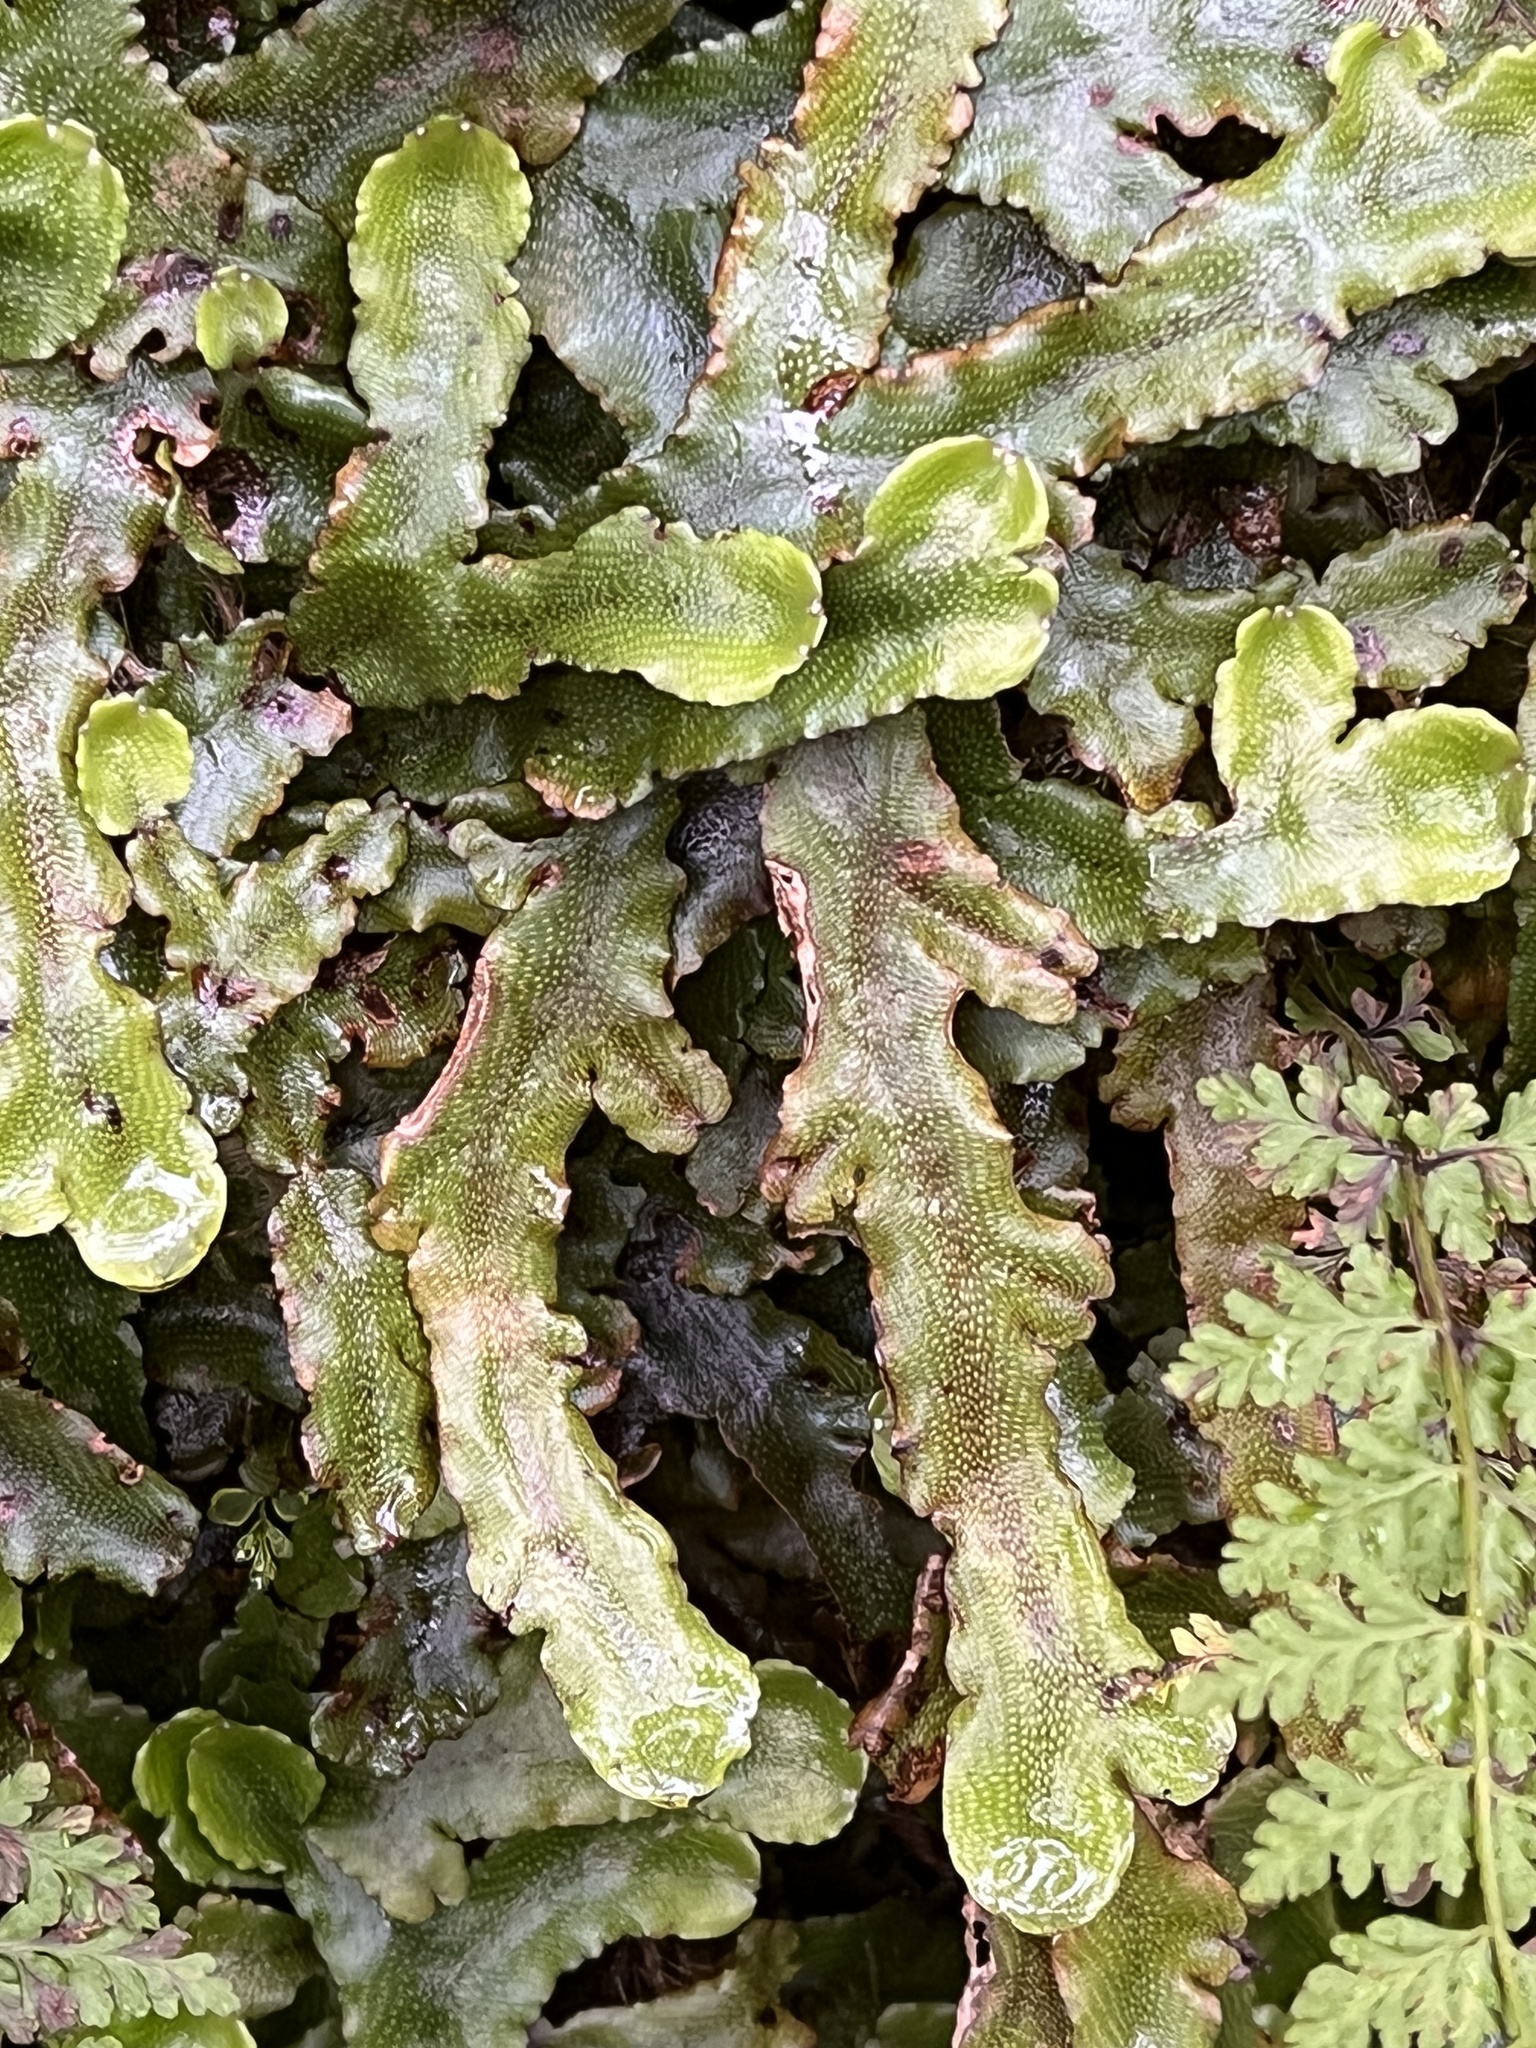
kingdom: Plantae
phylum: Marchantiophyta
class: Marchantiopsida
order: Marchantiales
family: Conocephalaceae
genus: Conocephalum
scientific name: Conocephalum conicum
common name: Great scented liverwort
